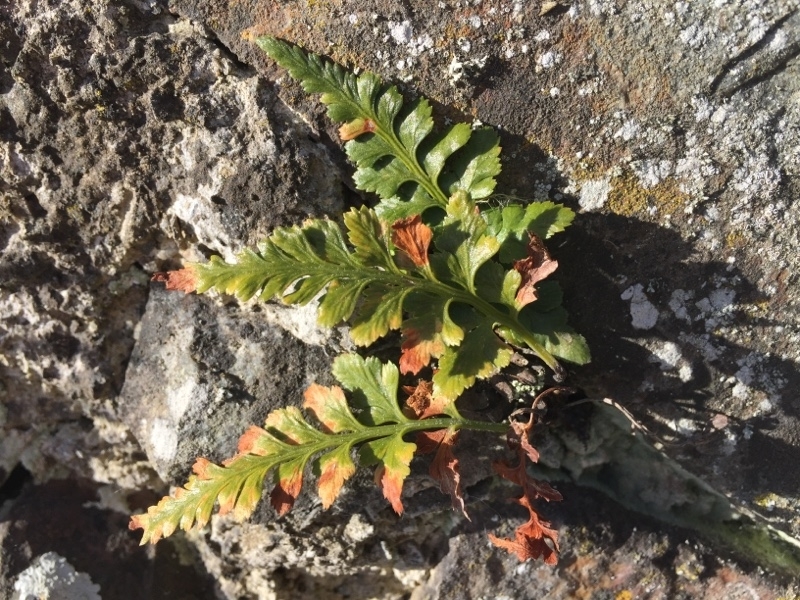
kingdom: Plantae
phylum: Tracheophyta
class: Polypodiopsida
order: Polypodiales
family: Aspleniaceae
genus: Asplenium
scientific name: Asplenium adiantum-nigrum
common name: Black spleenwort
